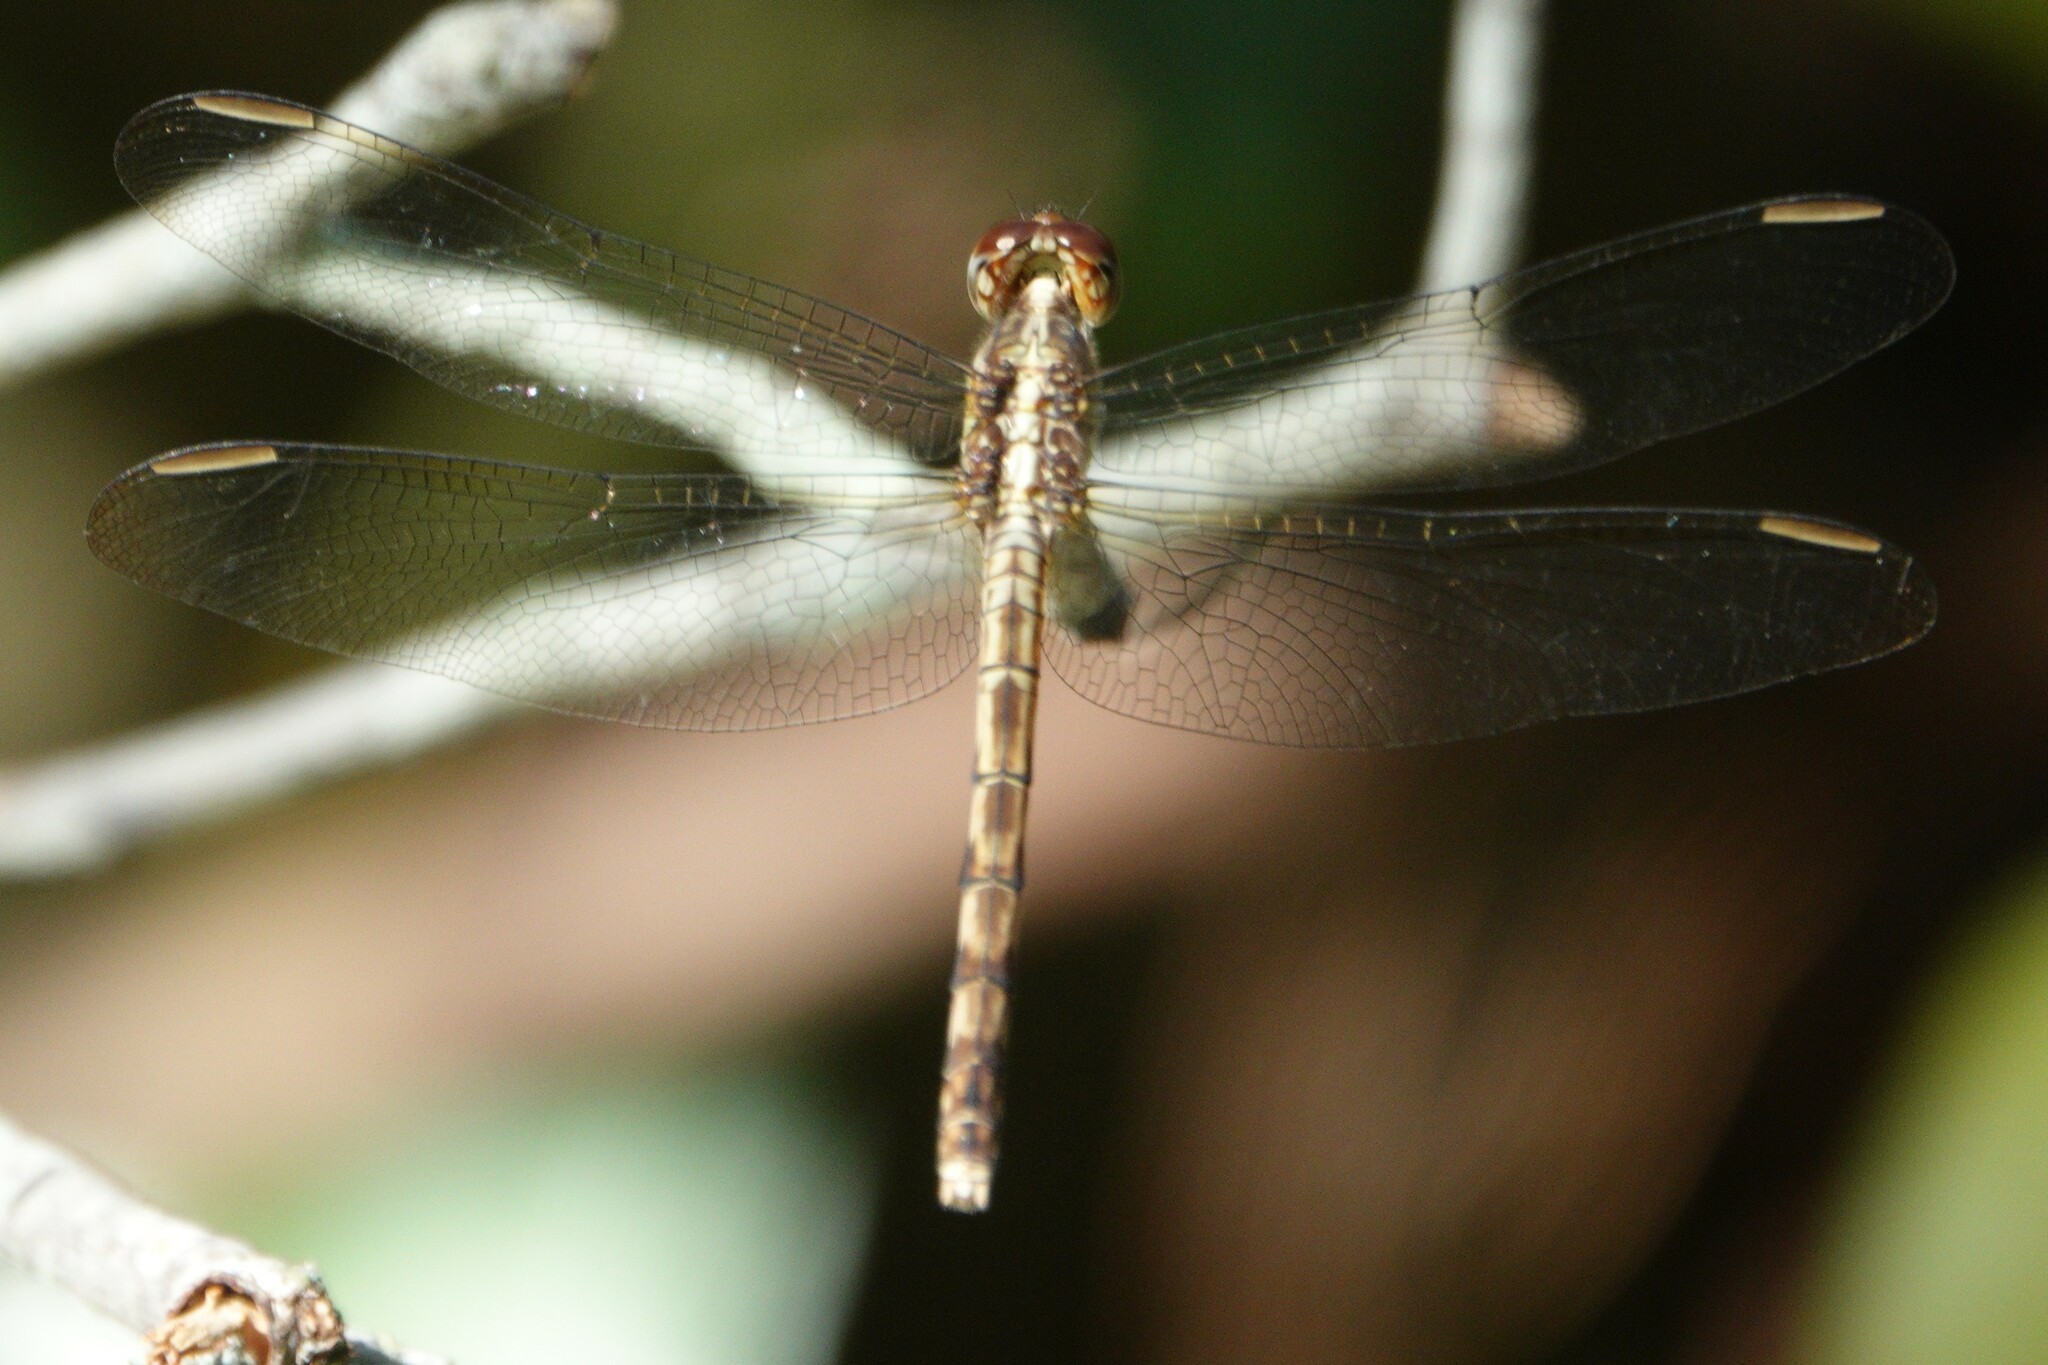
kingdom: Animalia
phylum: Arthropoda
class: Insecta
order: Odonata
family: Libellulidae
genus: Erythrodiplax
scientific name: Erythrodiplax umbrata
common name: Band-winged dragonlet
